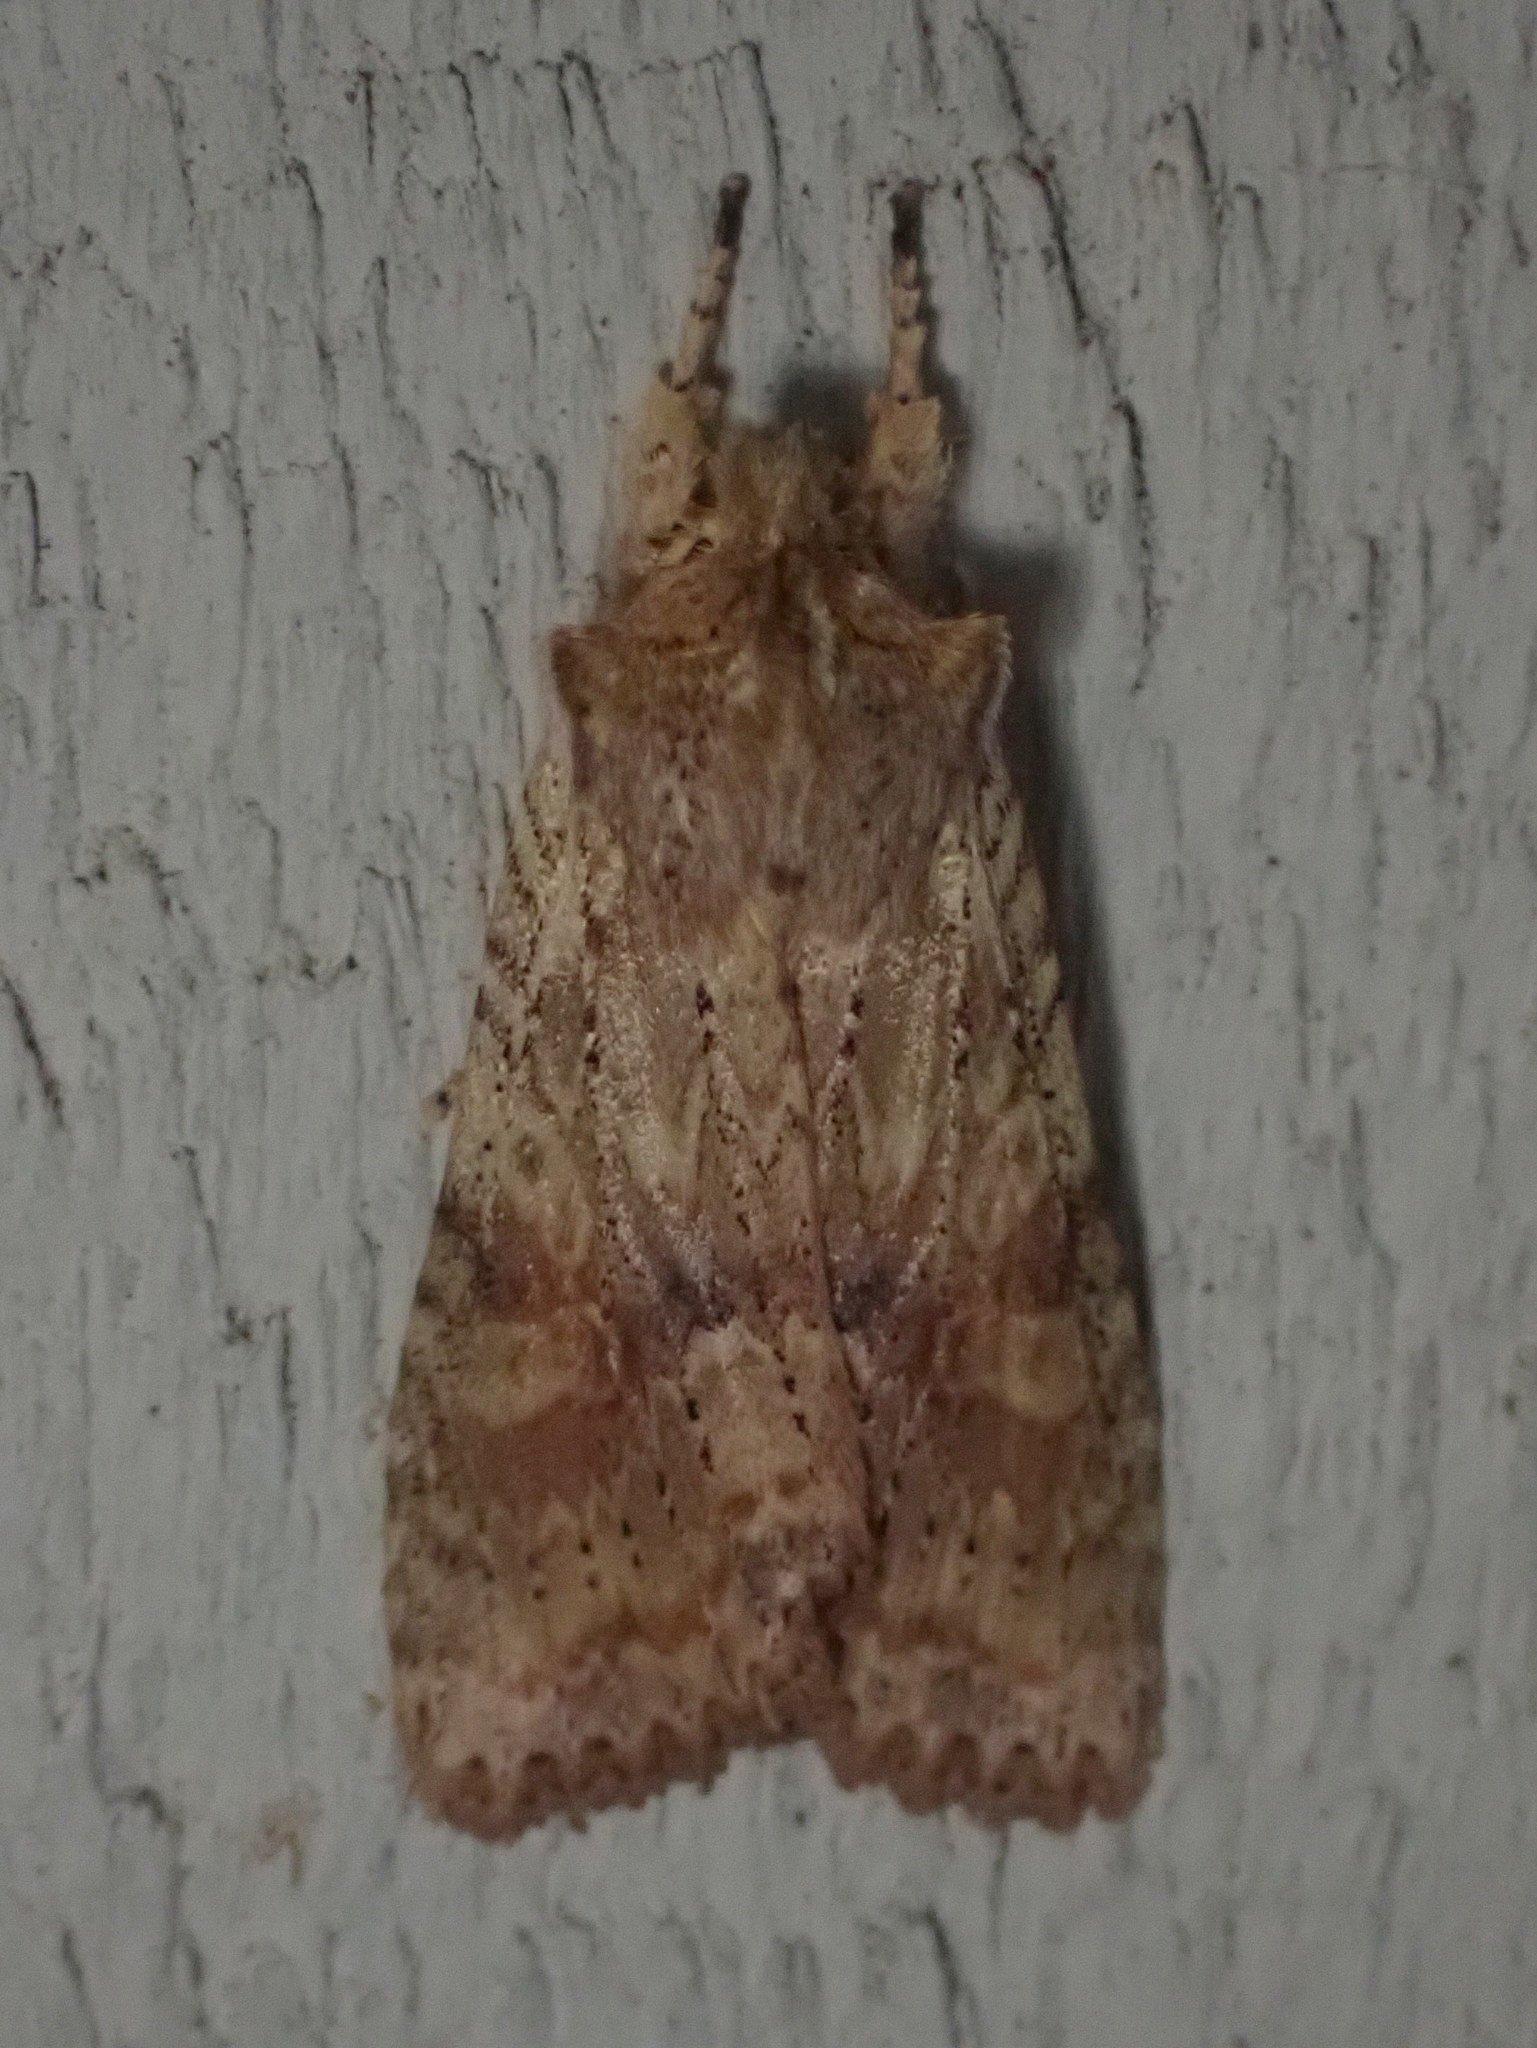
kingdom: Animalia
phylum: Arthropoda
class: Insecta
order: Lepidoptera
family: Noctuidae
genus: Lithophane
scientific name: Lithophane bethunei
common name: Bethune's pinion moth
